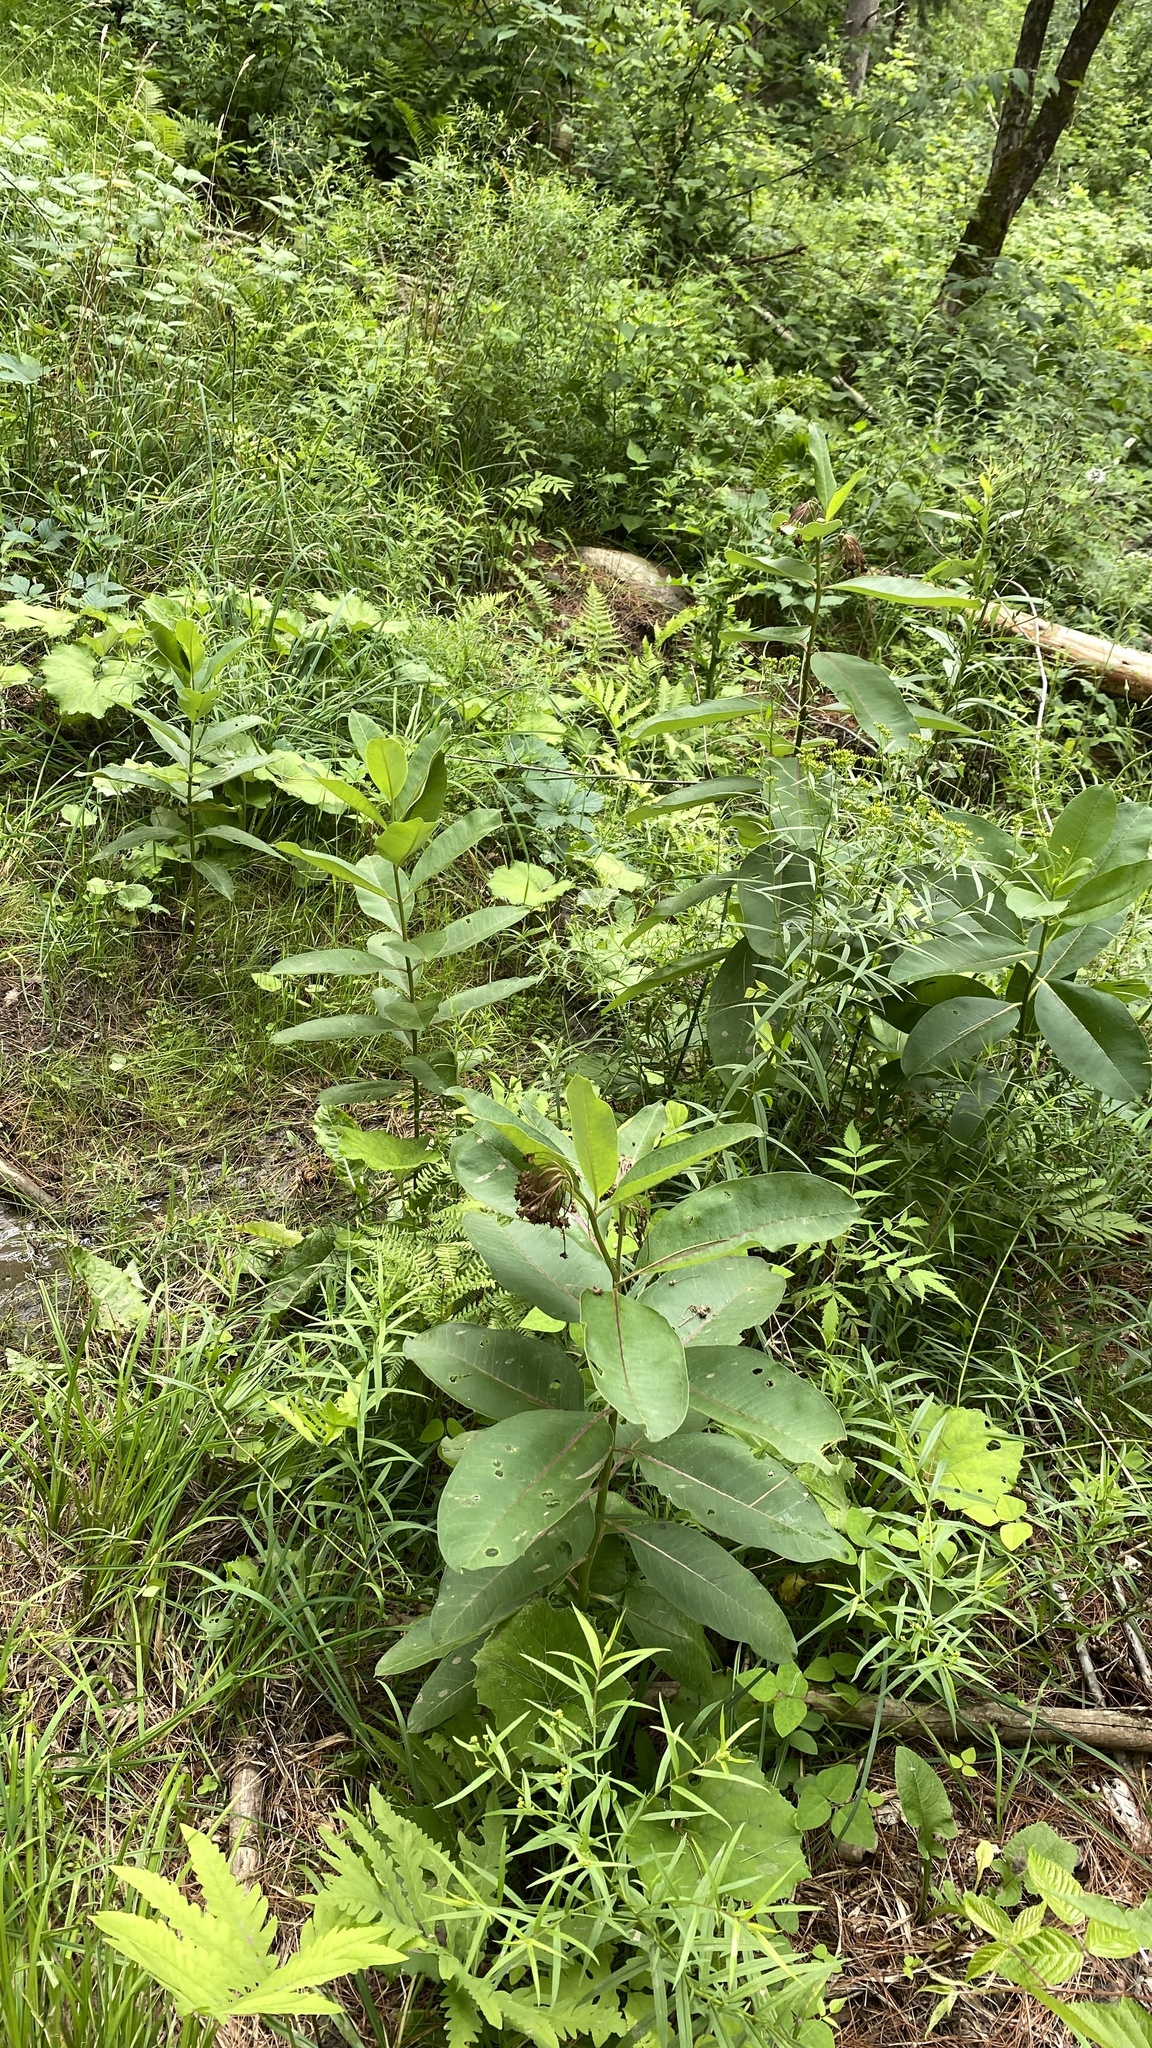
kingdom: Plantae
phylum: Tracheophyta
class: Magnoliopsida
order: Gentianales
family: Apocynaceae
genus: Asclepias
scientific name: Asclepias syriaca
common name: Common milkweed
